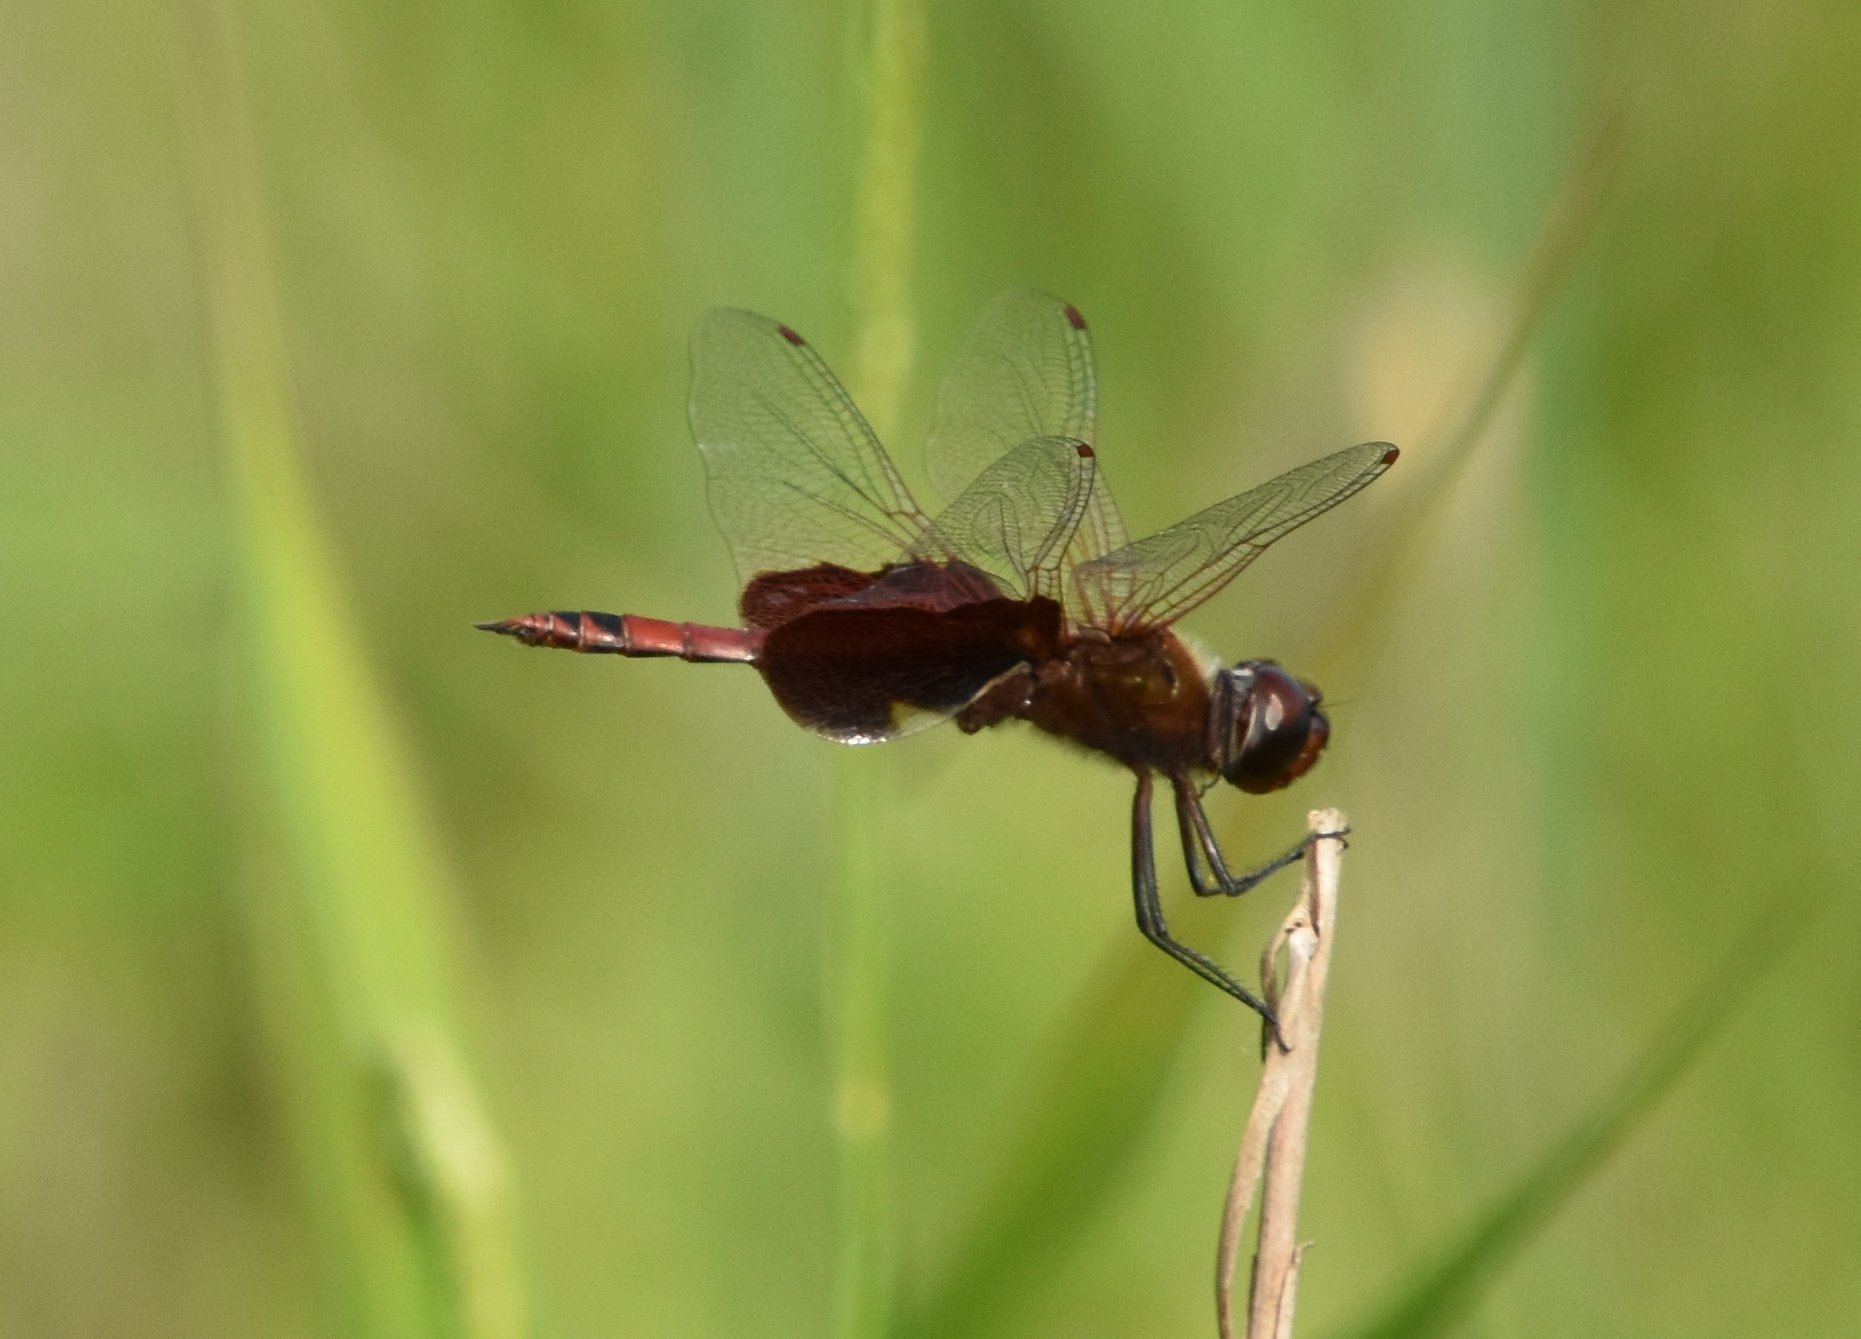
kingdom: Animalia
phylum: Arthropoda
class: Insecta
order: Odonata
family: Libellulidae
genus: Tramea
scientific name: Tramea carolina
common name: Carolina saddlebags
